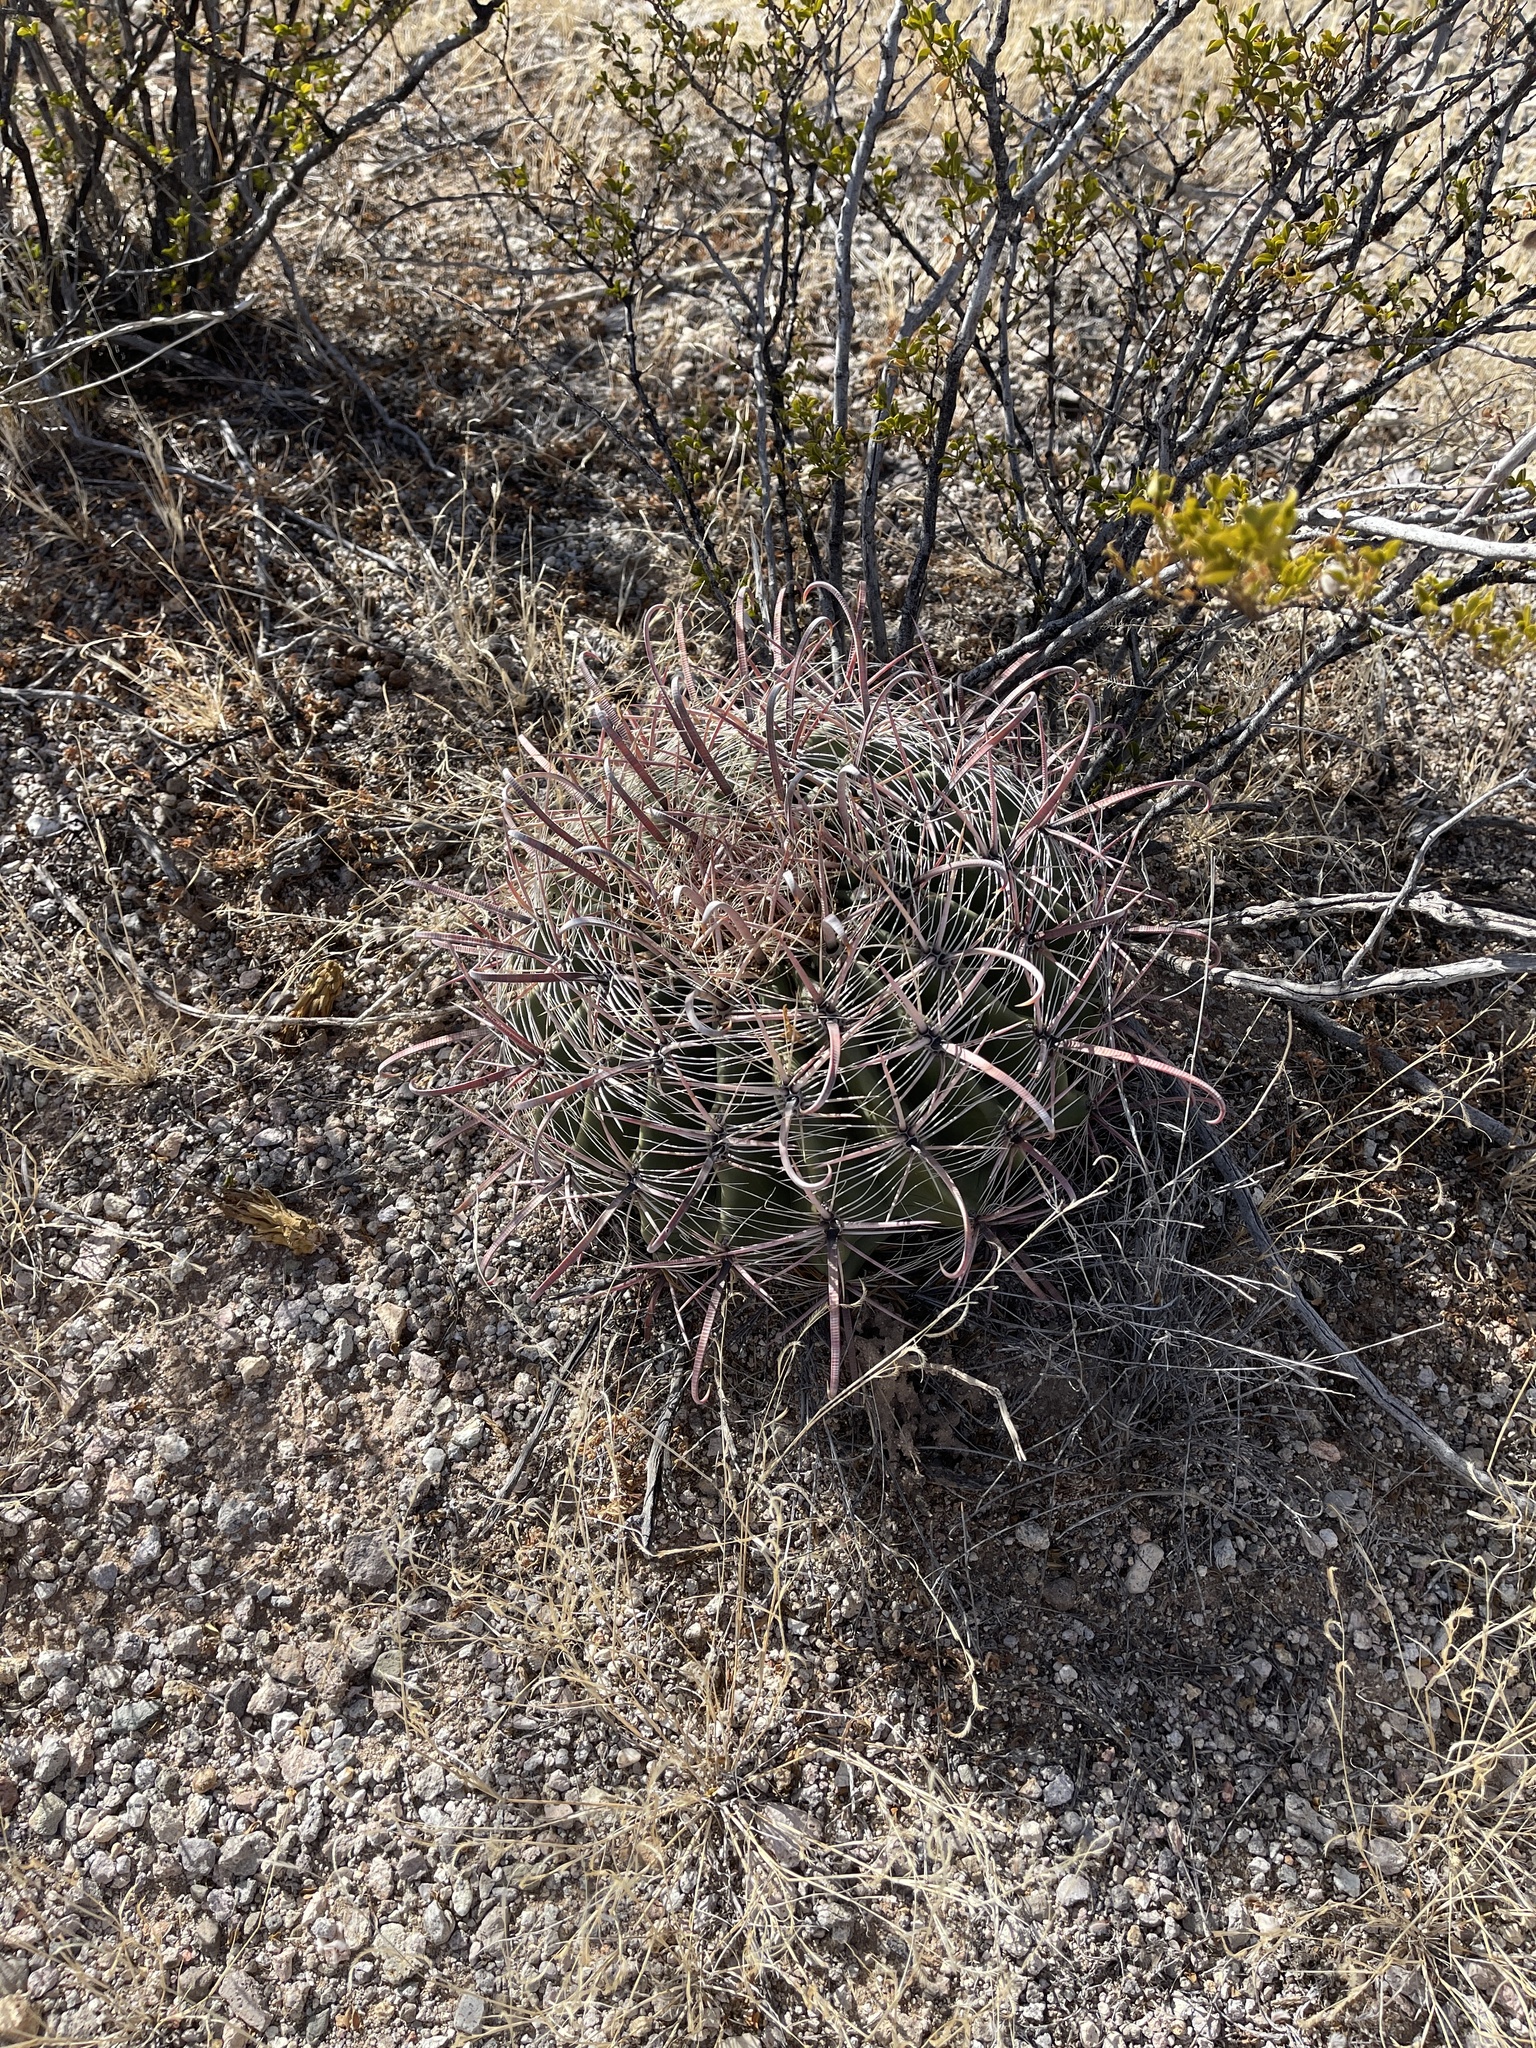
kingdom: Plantae
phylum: Tracheophyta
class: Magnoliopsida
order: Caryophyllales
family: Cactaceae
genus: Ferocactus
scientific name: Ferocactus wislizeni
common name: Candy barrel cactus
